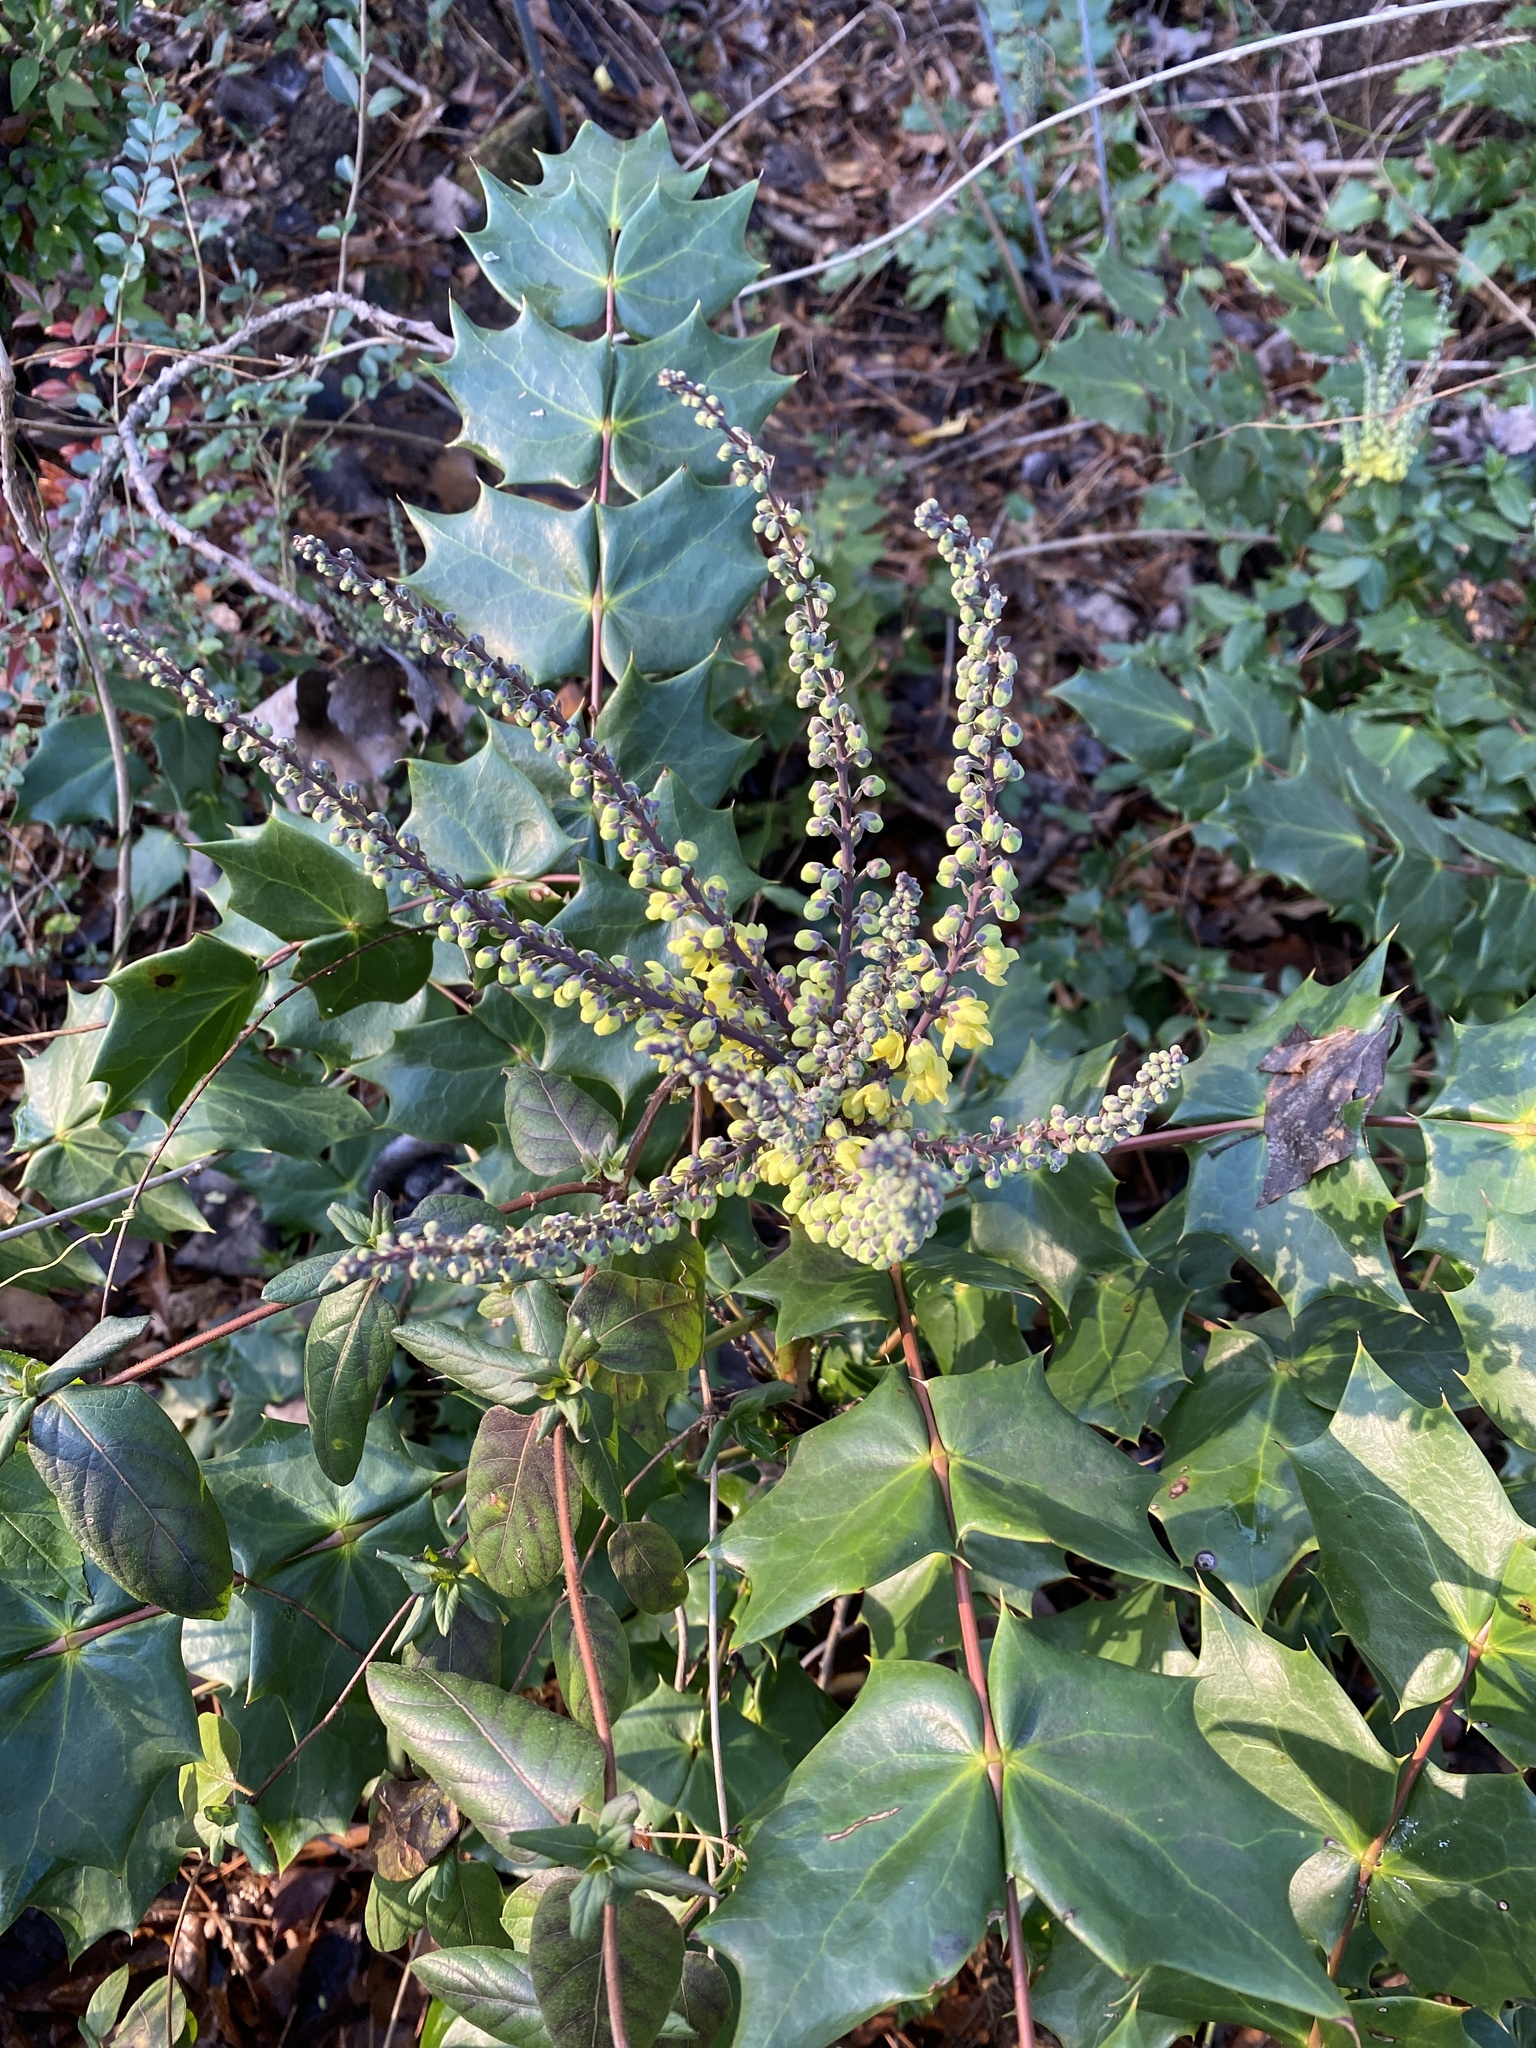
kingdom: Plantae
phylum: Tracheophyta
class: Magnoliopsida
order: Ranunculales
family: Berberidaceae
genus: Mahonia
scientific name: Mahonia bealei
